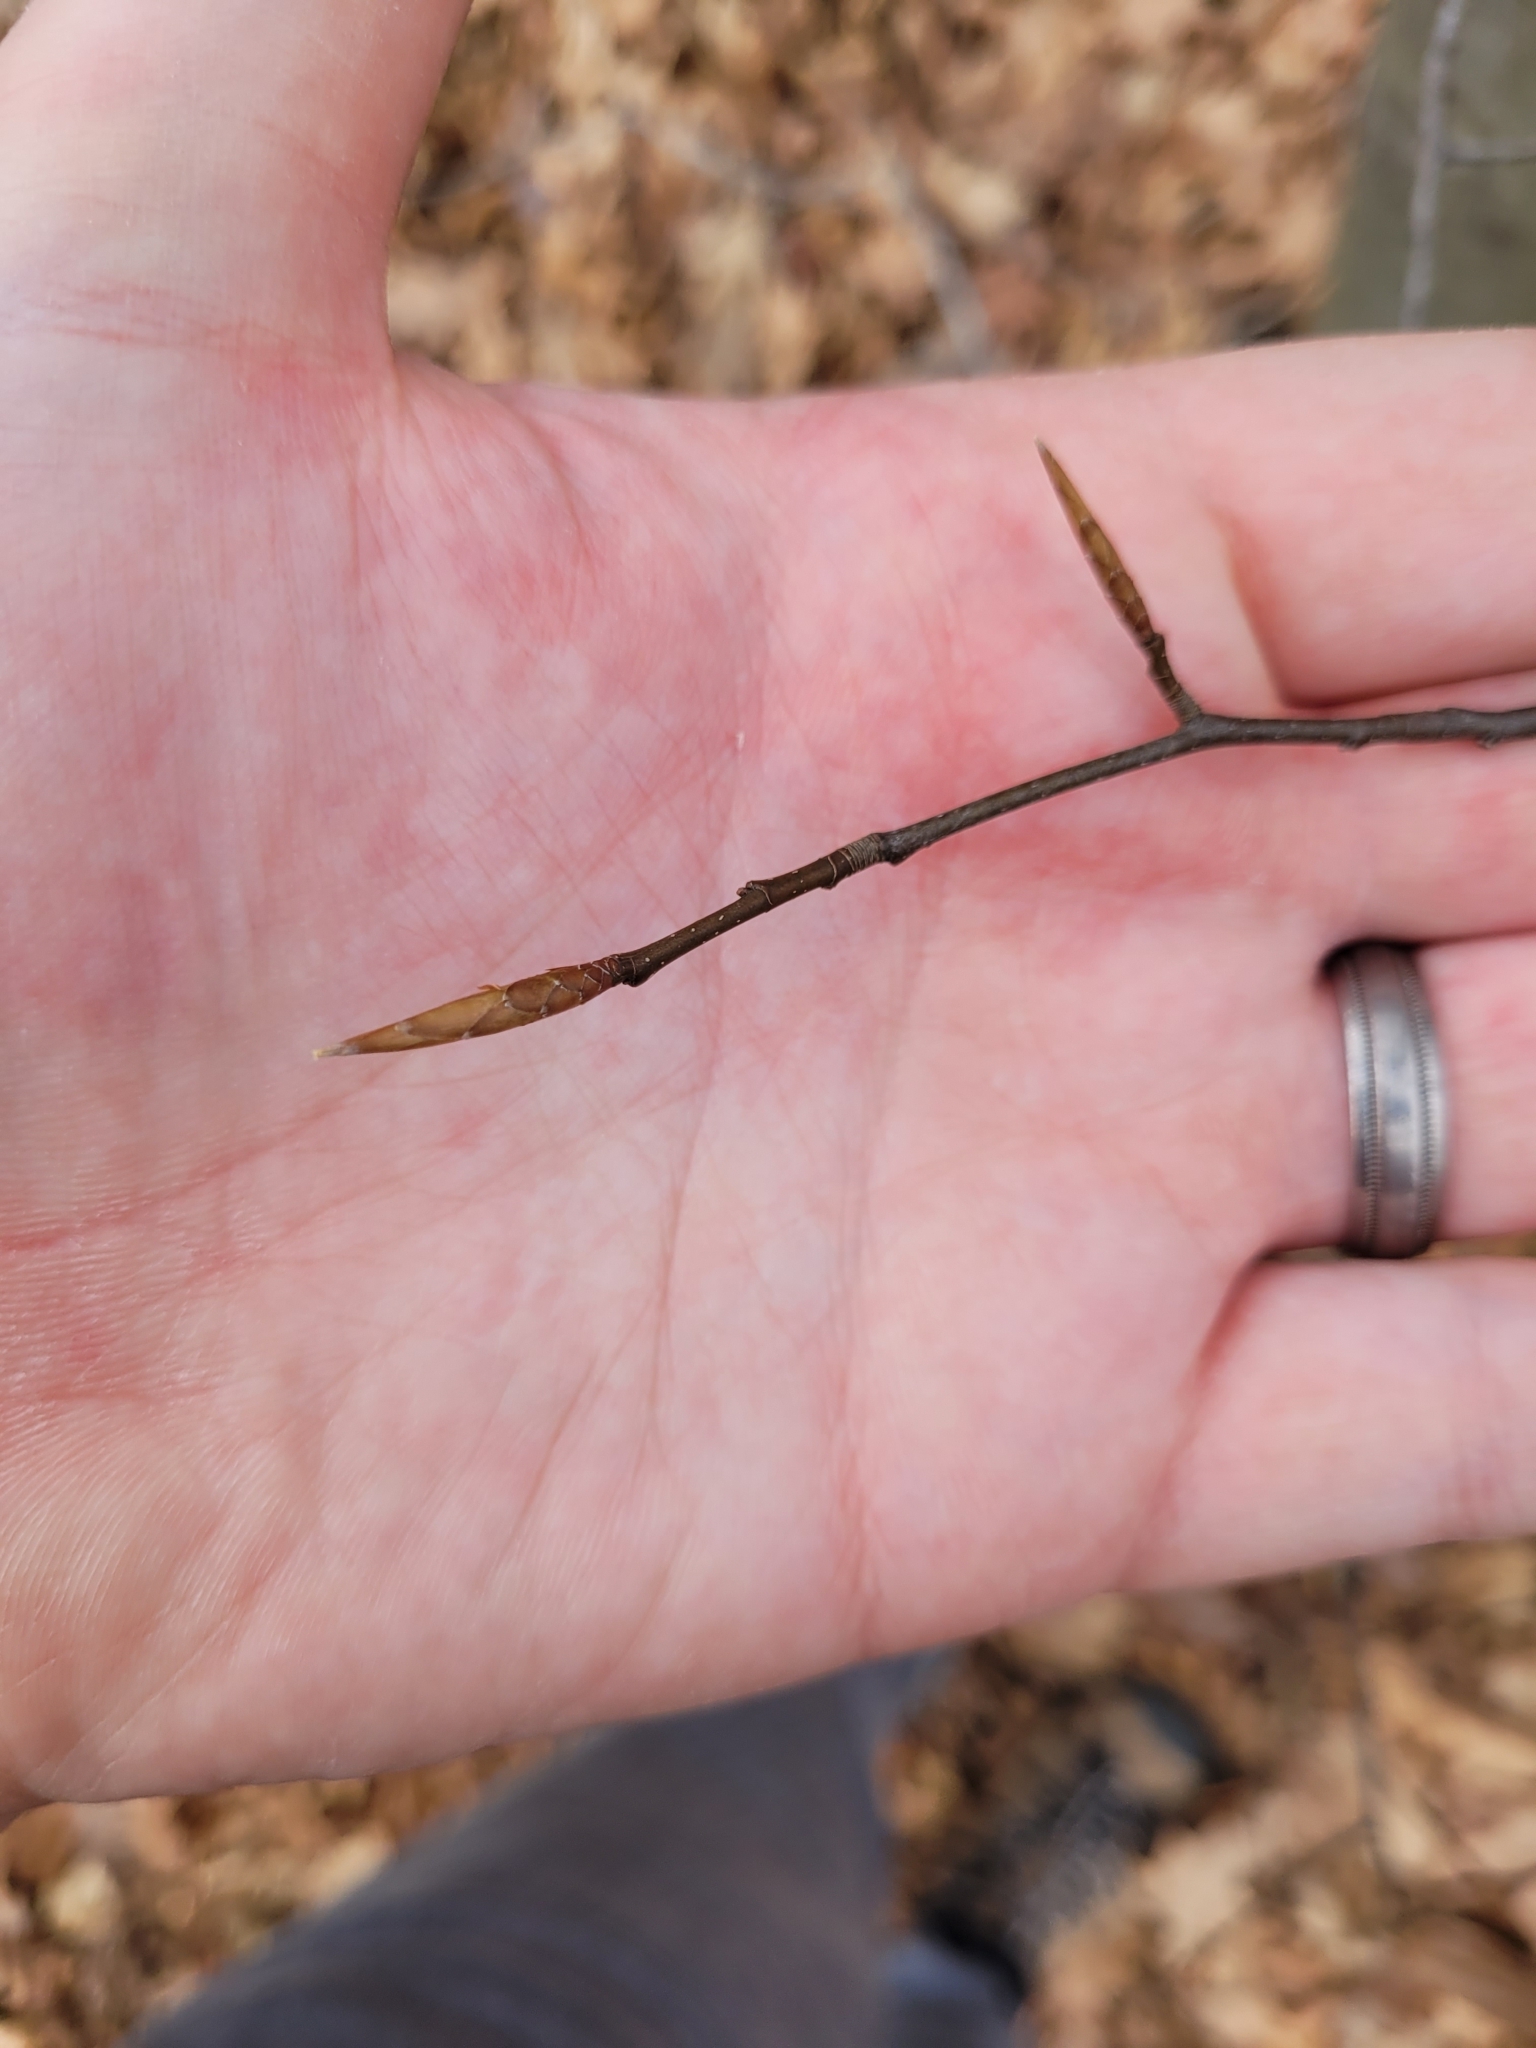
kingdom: Plantae
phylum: Tracheophyta
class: Magnoliopsida
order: Fagales
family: Fagaceae
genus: Fagus
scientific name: Fagus grandifolia
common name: American beech
